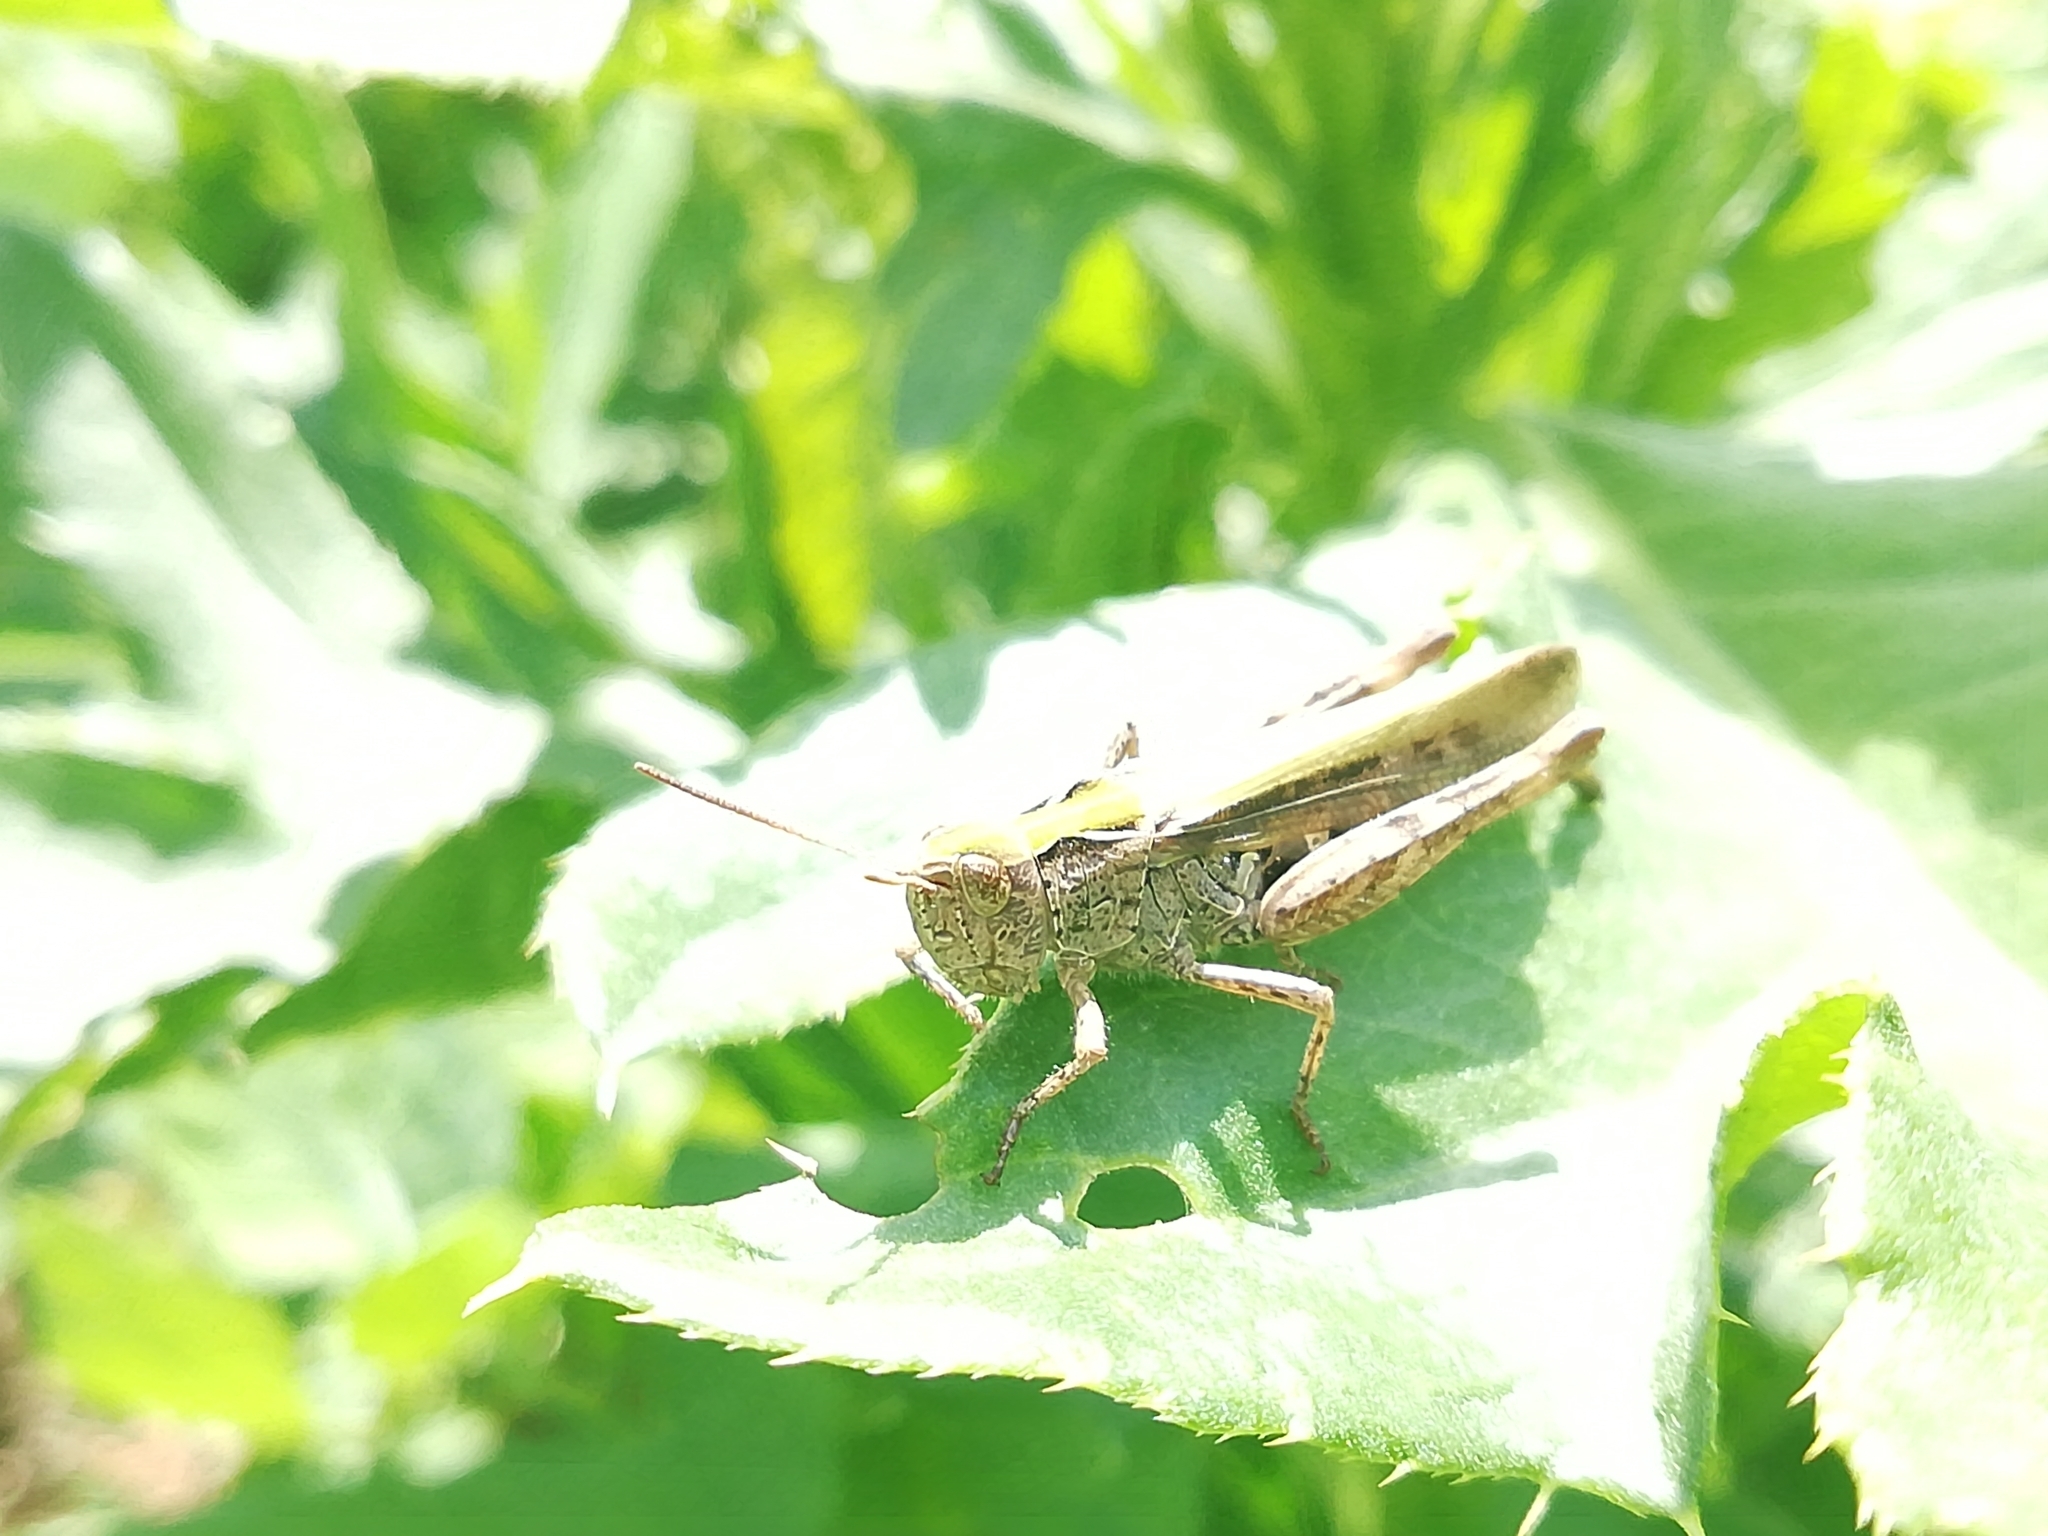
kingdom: Animalia
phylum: Arthropoda
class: Insecta
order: Orthoptera
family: Acrididae
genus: Chorthippus
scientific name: Chorthippus biguttulus
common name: Bow-winged grasshopper
